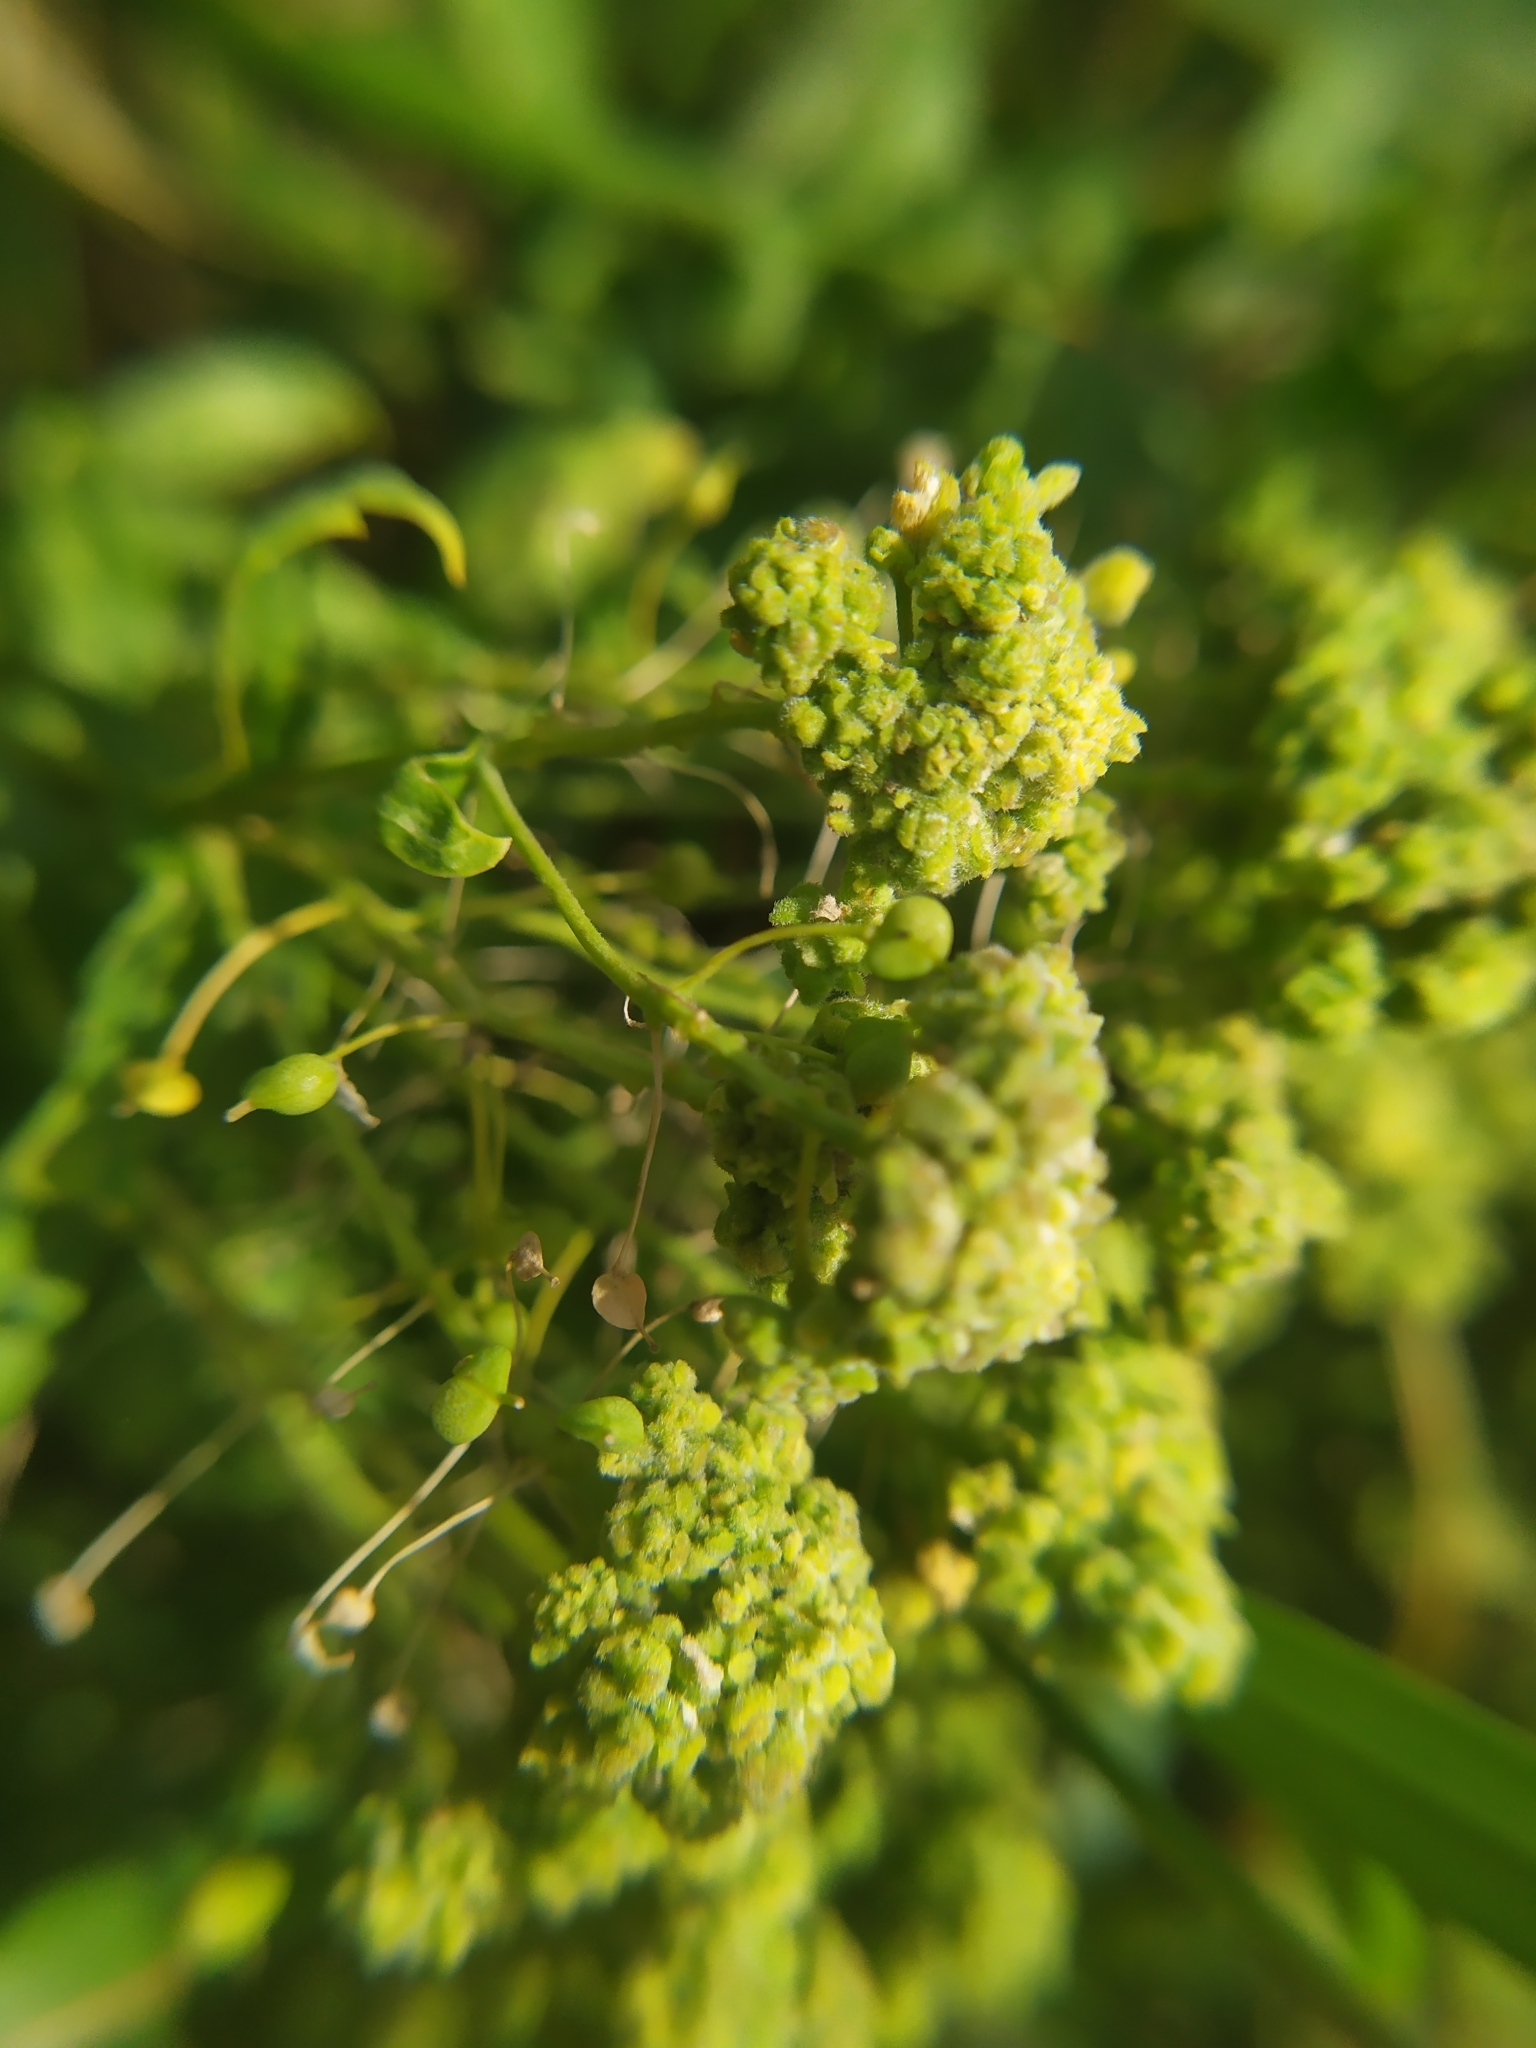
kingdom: Animalia
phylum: Arthropoda
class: Arachnida
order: Trombidiformes
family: Eriophyidae
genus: Aceria
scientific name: Aceria drabae
